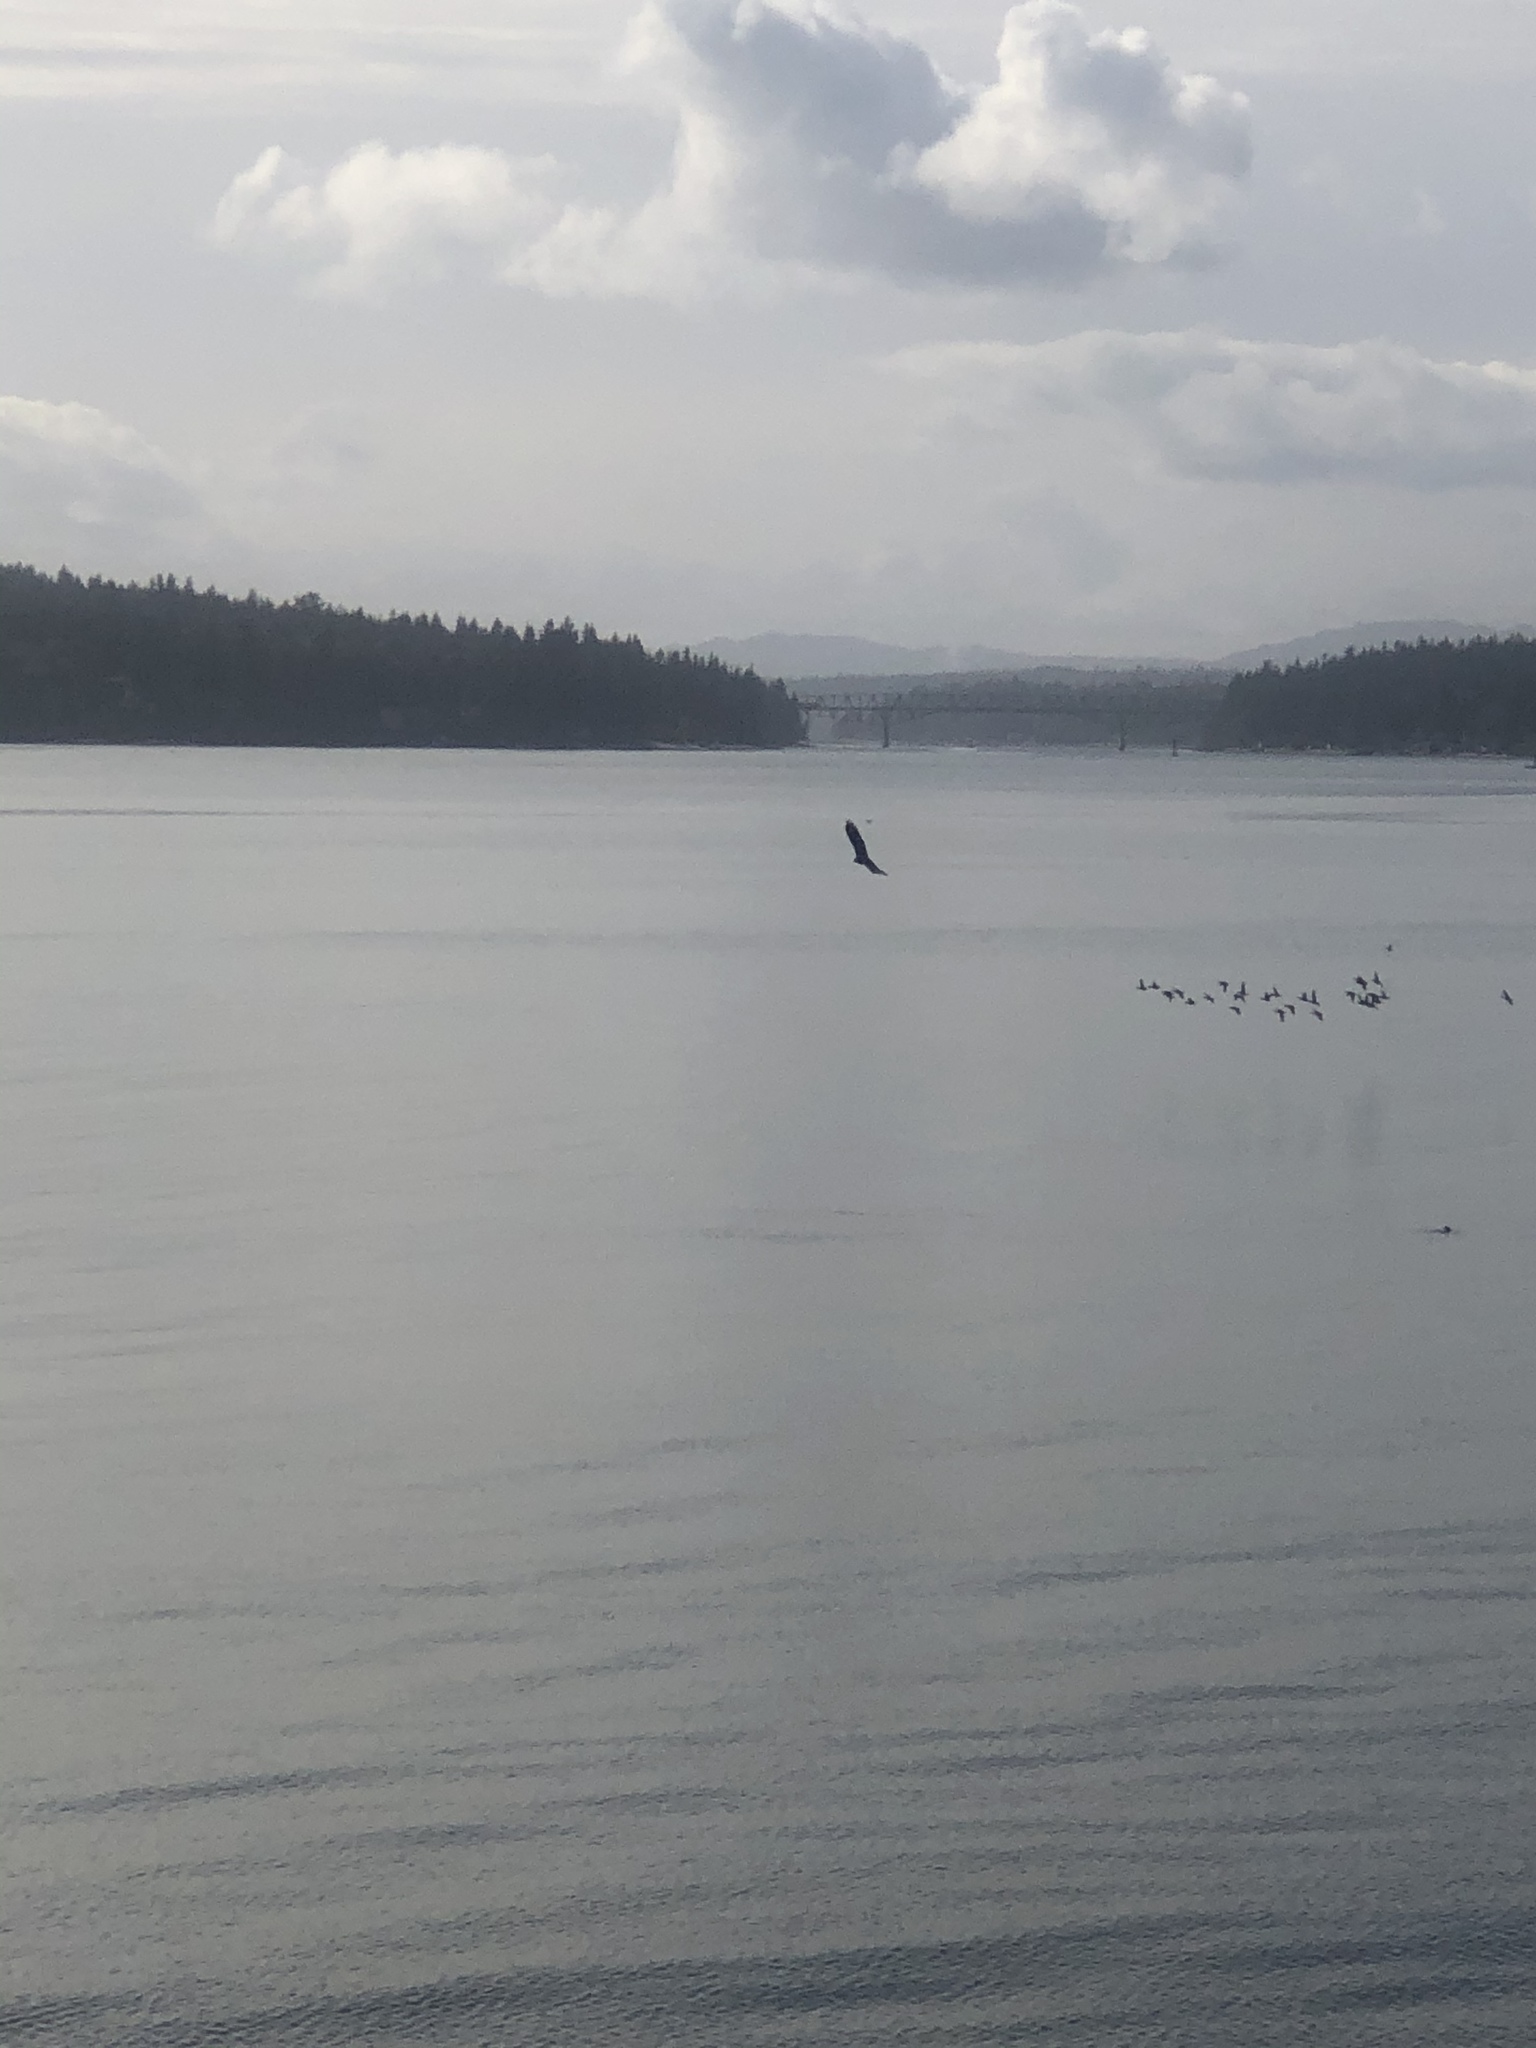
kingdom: Animalia
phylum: Chordata
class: Aves
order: Accipitriformes
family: Accipitridae
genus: Haliaeetus
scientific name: Haliaeetus leucocephalus
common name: Bald eagle
